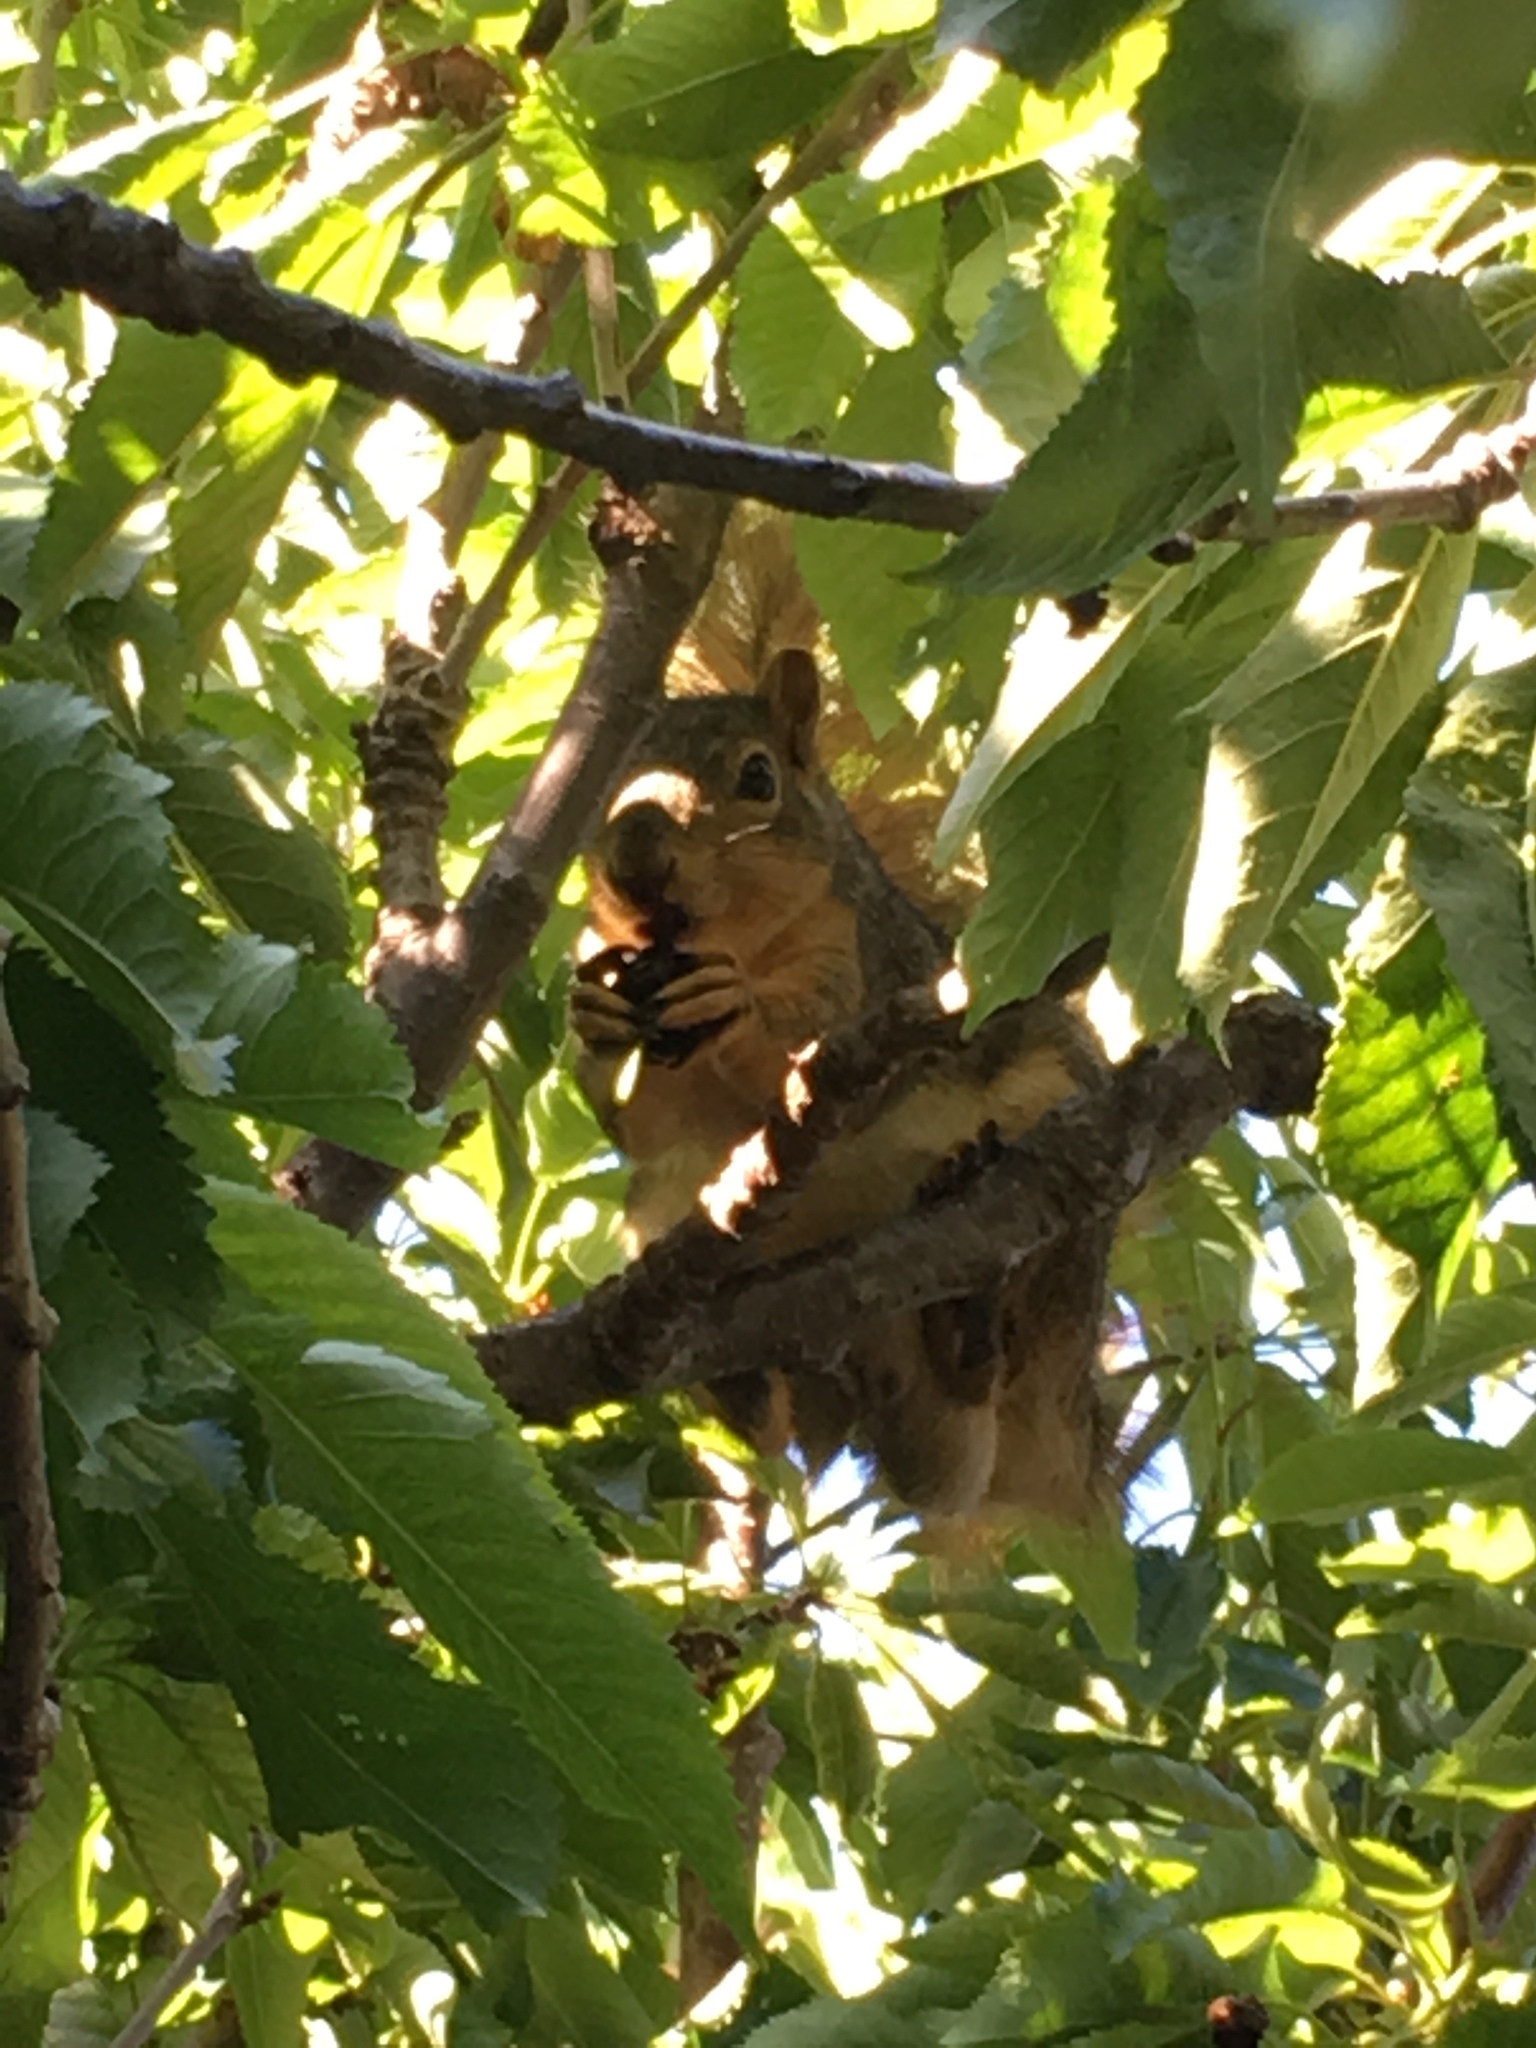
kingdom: Animalia
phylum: Chordata
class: Mammalia
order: Rodentia
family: Sciuridae
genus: Sciurus
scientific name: Sciurus niger
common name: Fox squirrel
